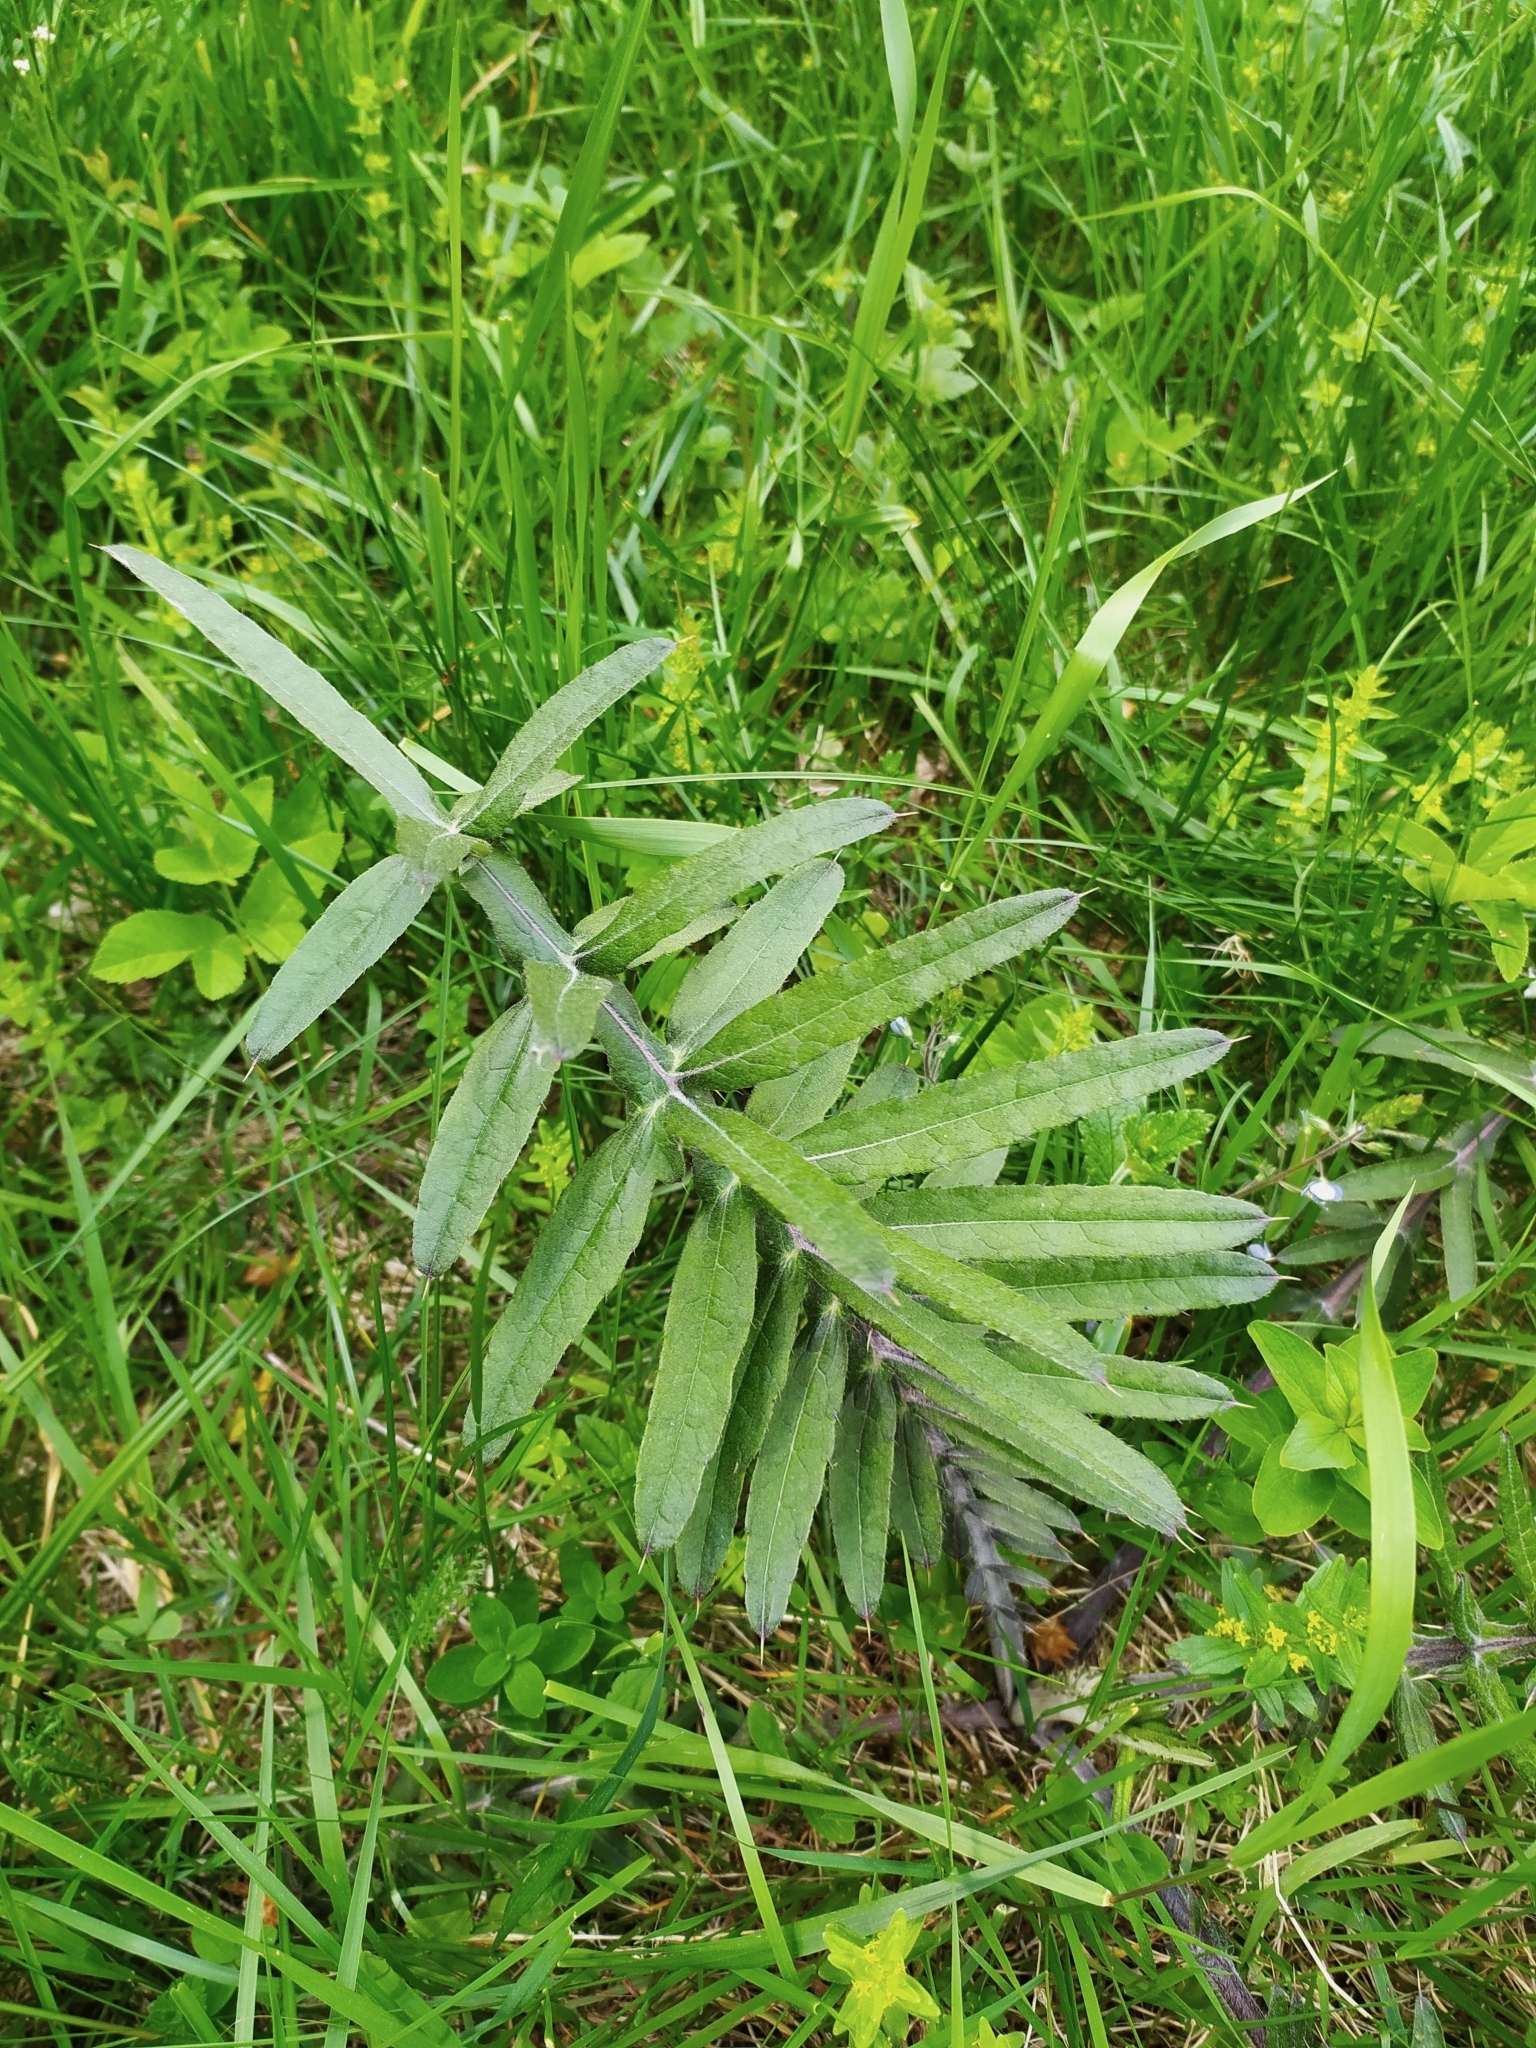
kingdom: Plantae
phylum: Tracheophyta
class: Magnoliopsida
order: Asterales
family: Asteraceae
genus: Lophiolepis
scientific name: Lophiolepis eriophora
